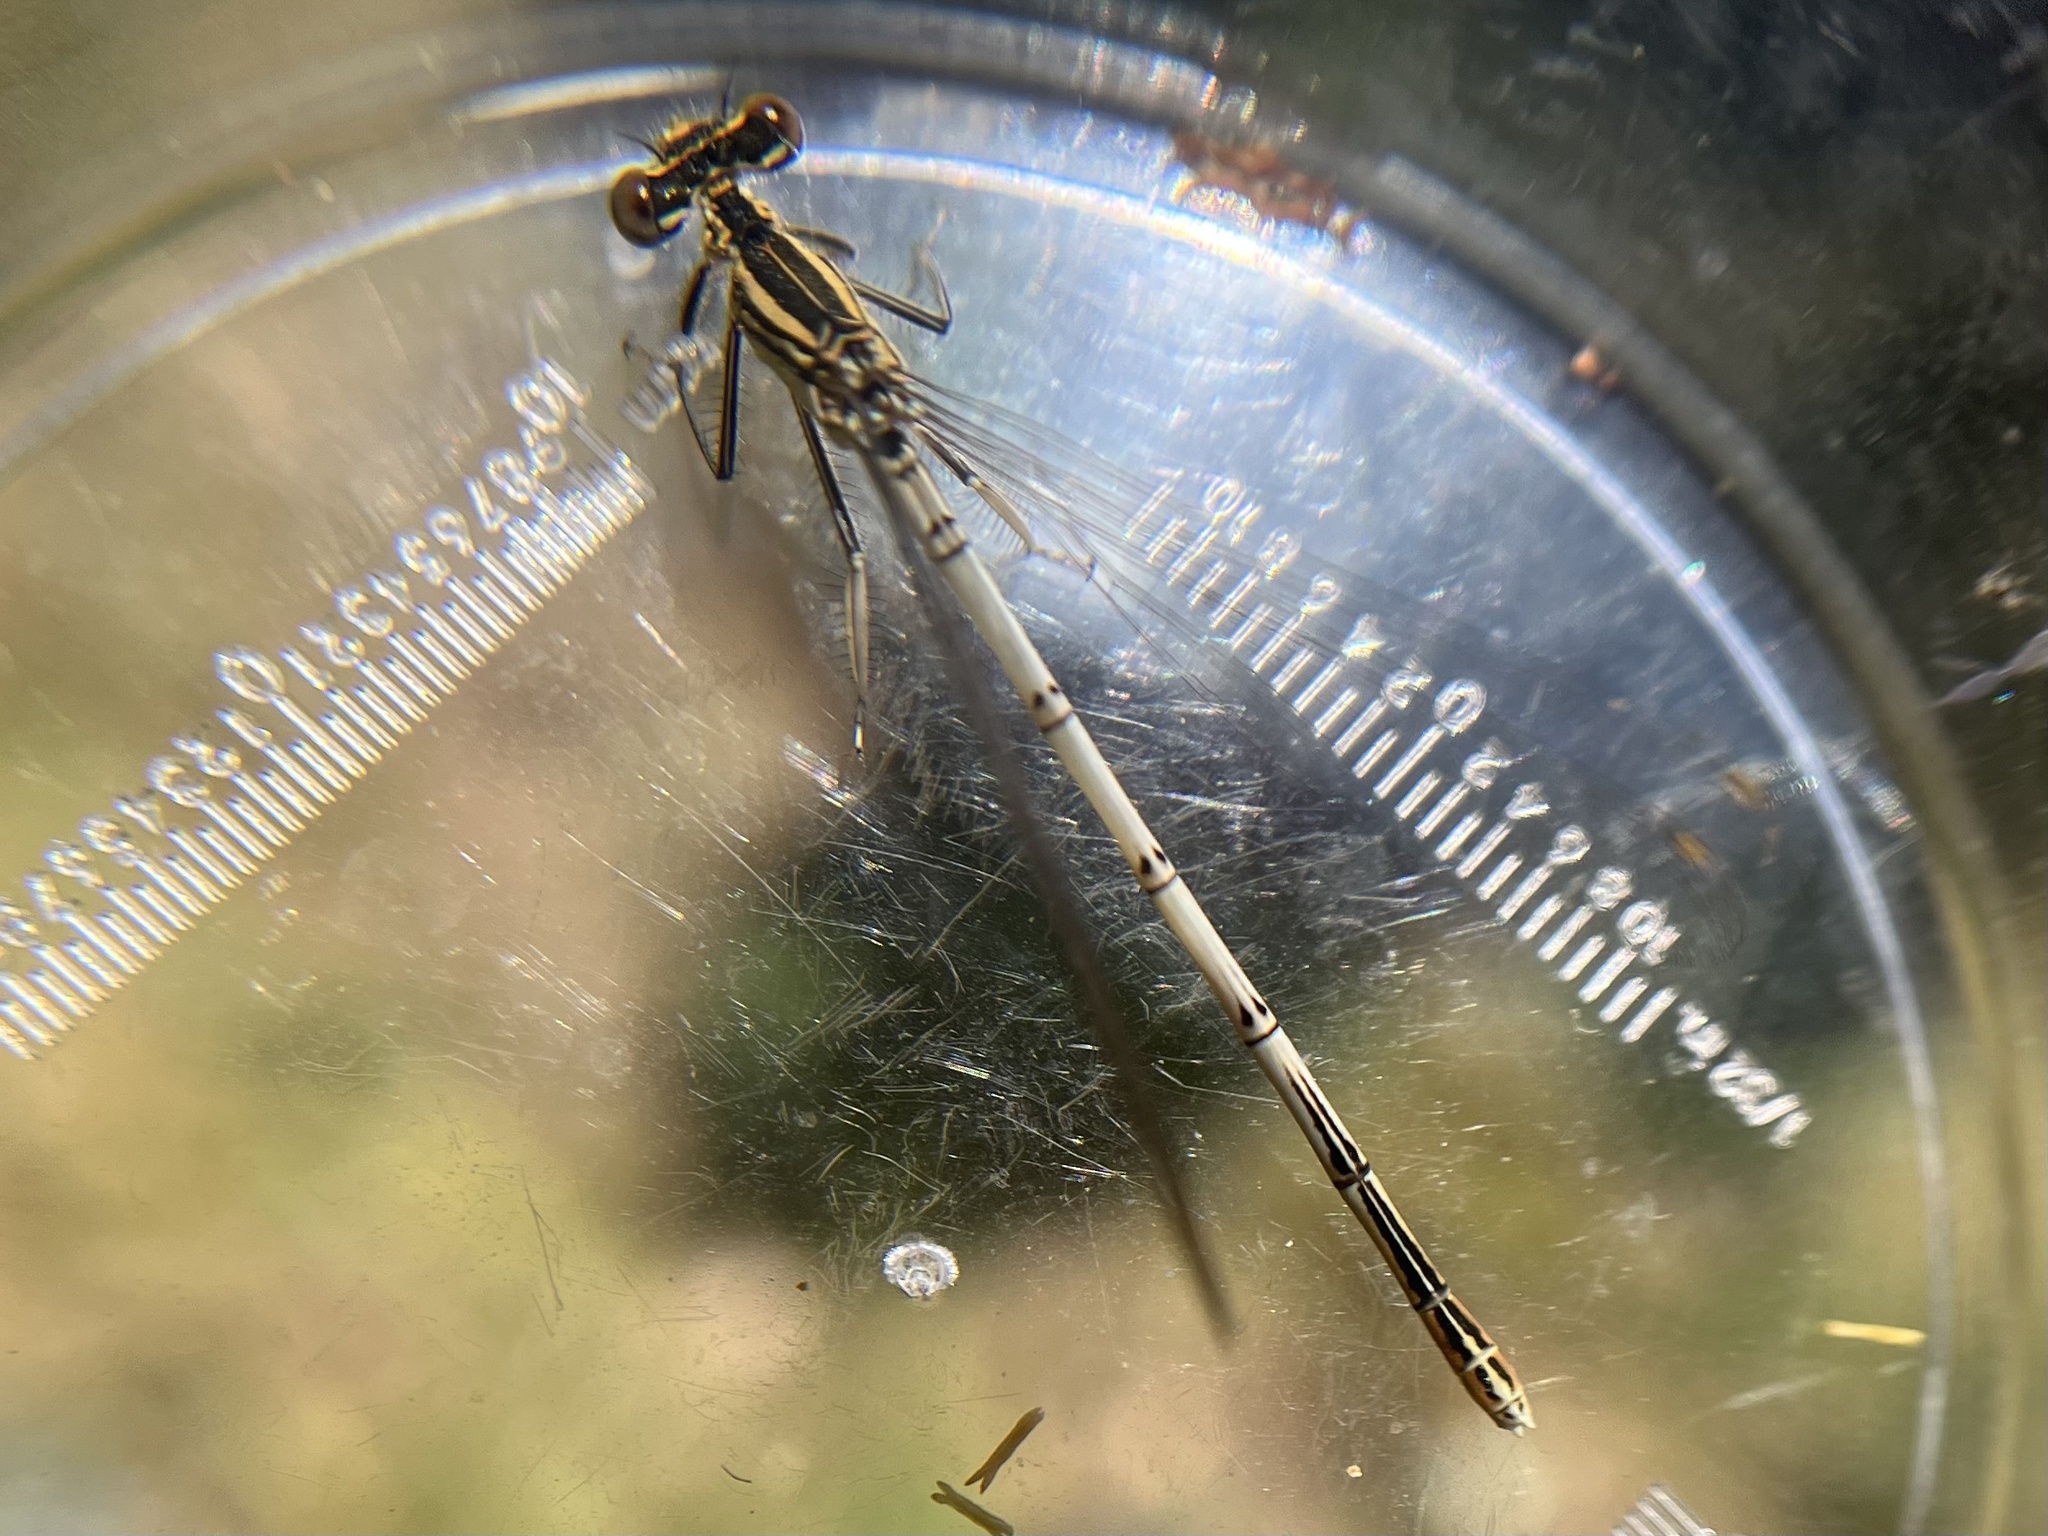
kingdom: Animalia
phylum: Arthropoda
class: Insecta
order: Odonata
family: Platycnemididae
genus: Platycnemis
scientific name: Platycnemis pennipes
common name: White-legged damselfly
